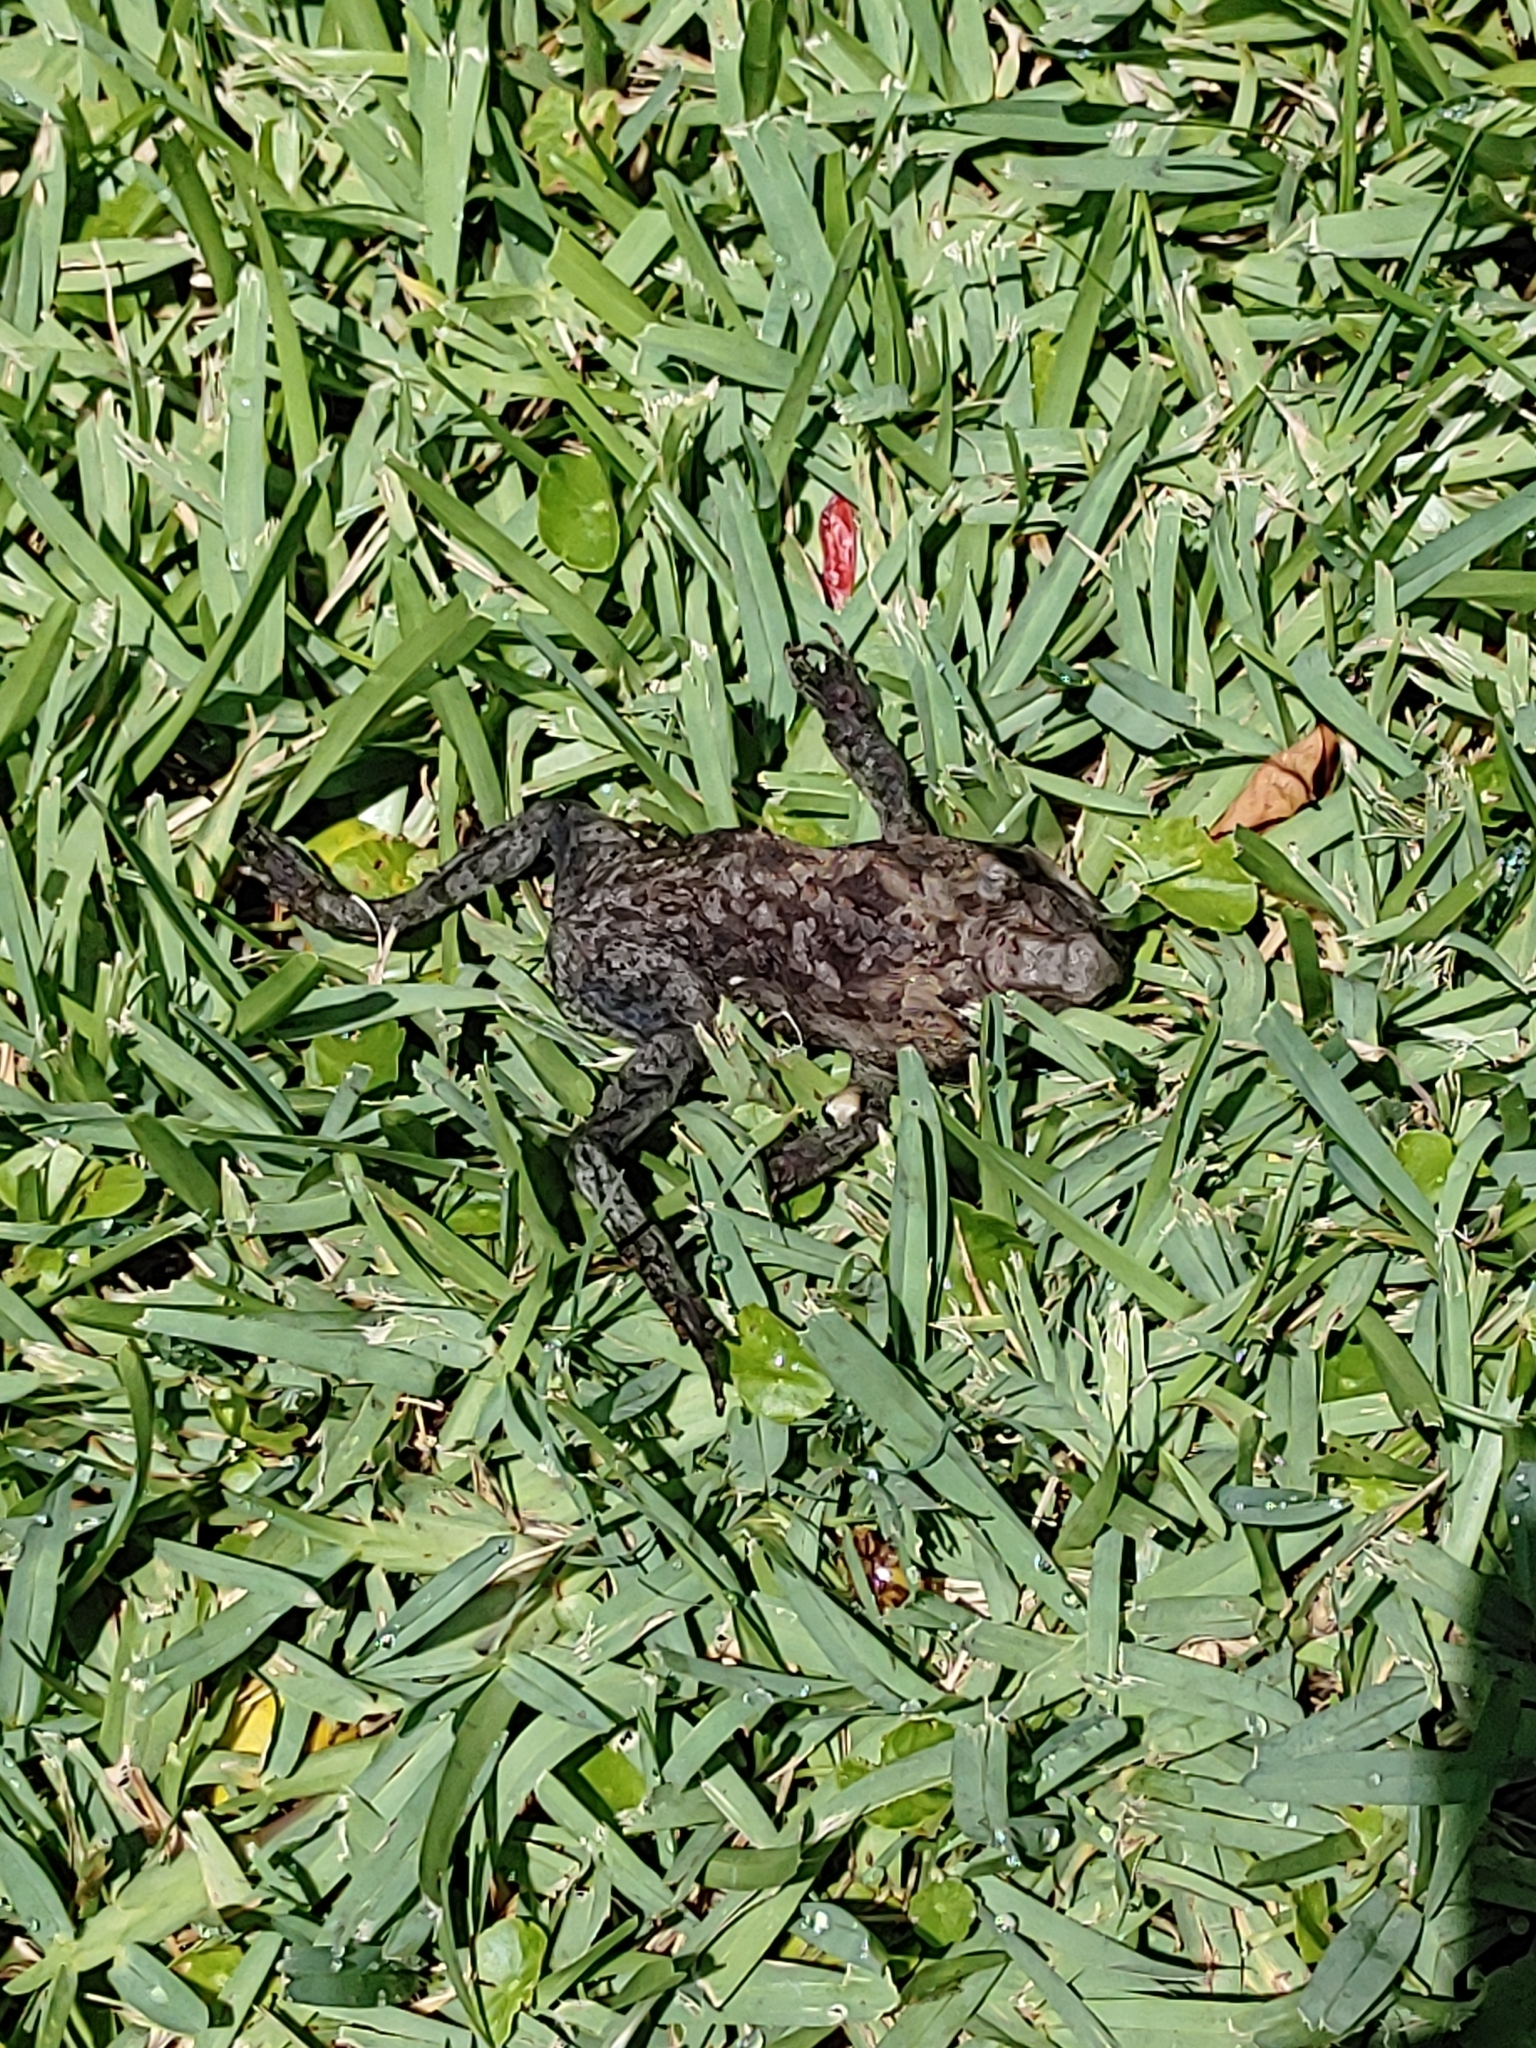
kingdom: Animalia
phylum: Chordata
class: Amphibia
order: Anura
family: Bufonidae
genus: Rhinella
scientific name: Rhinella marina
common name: Cane toad
